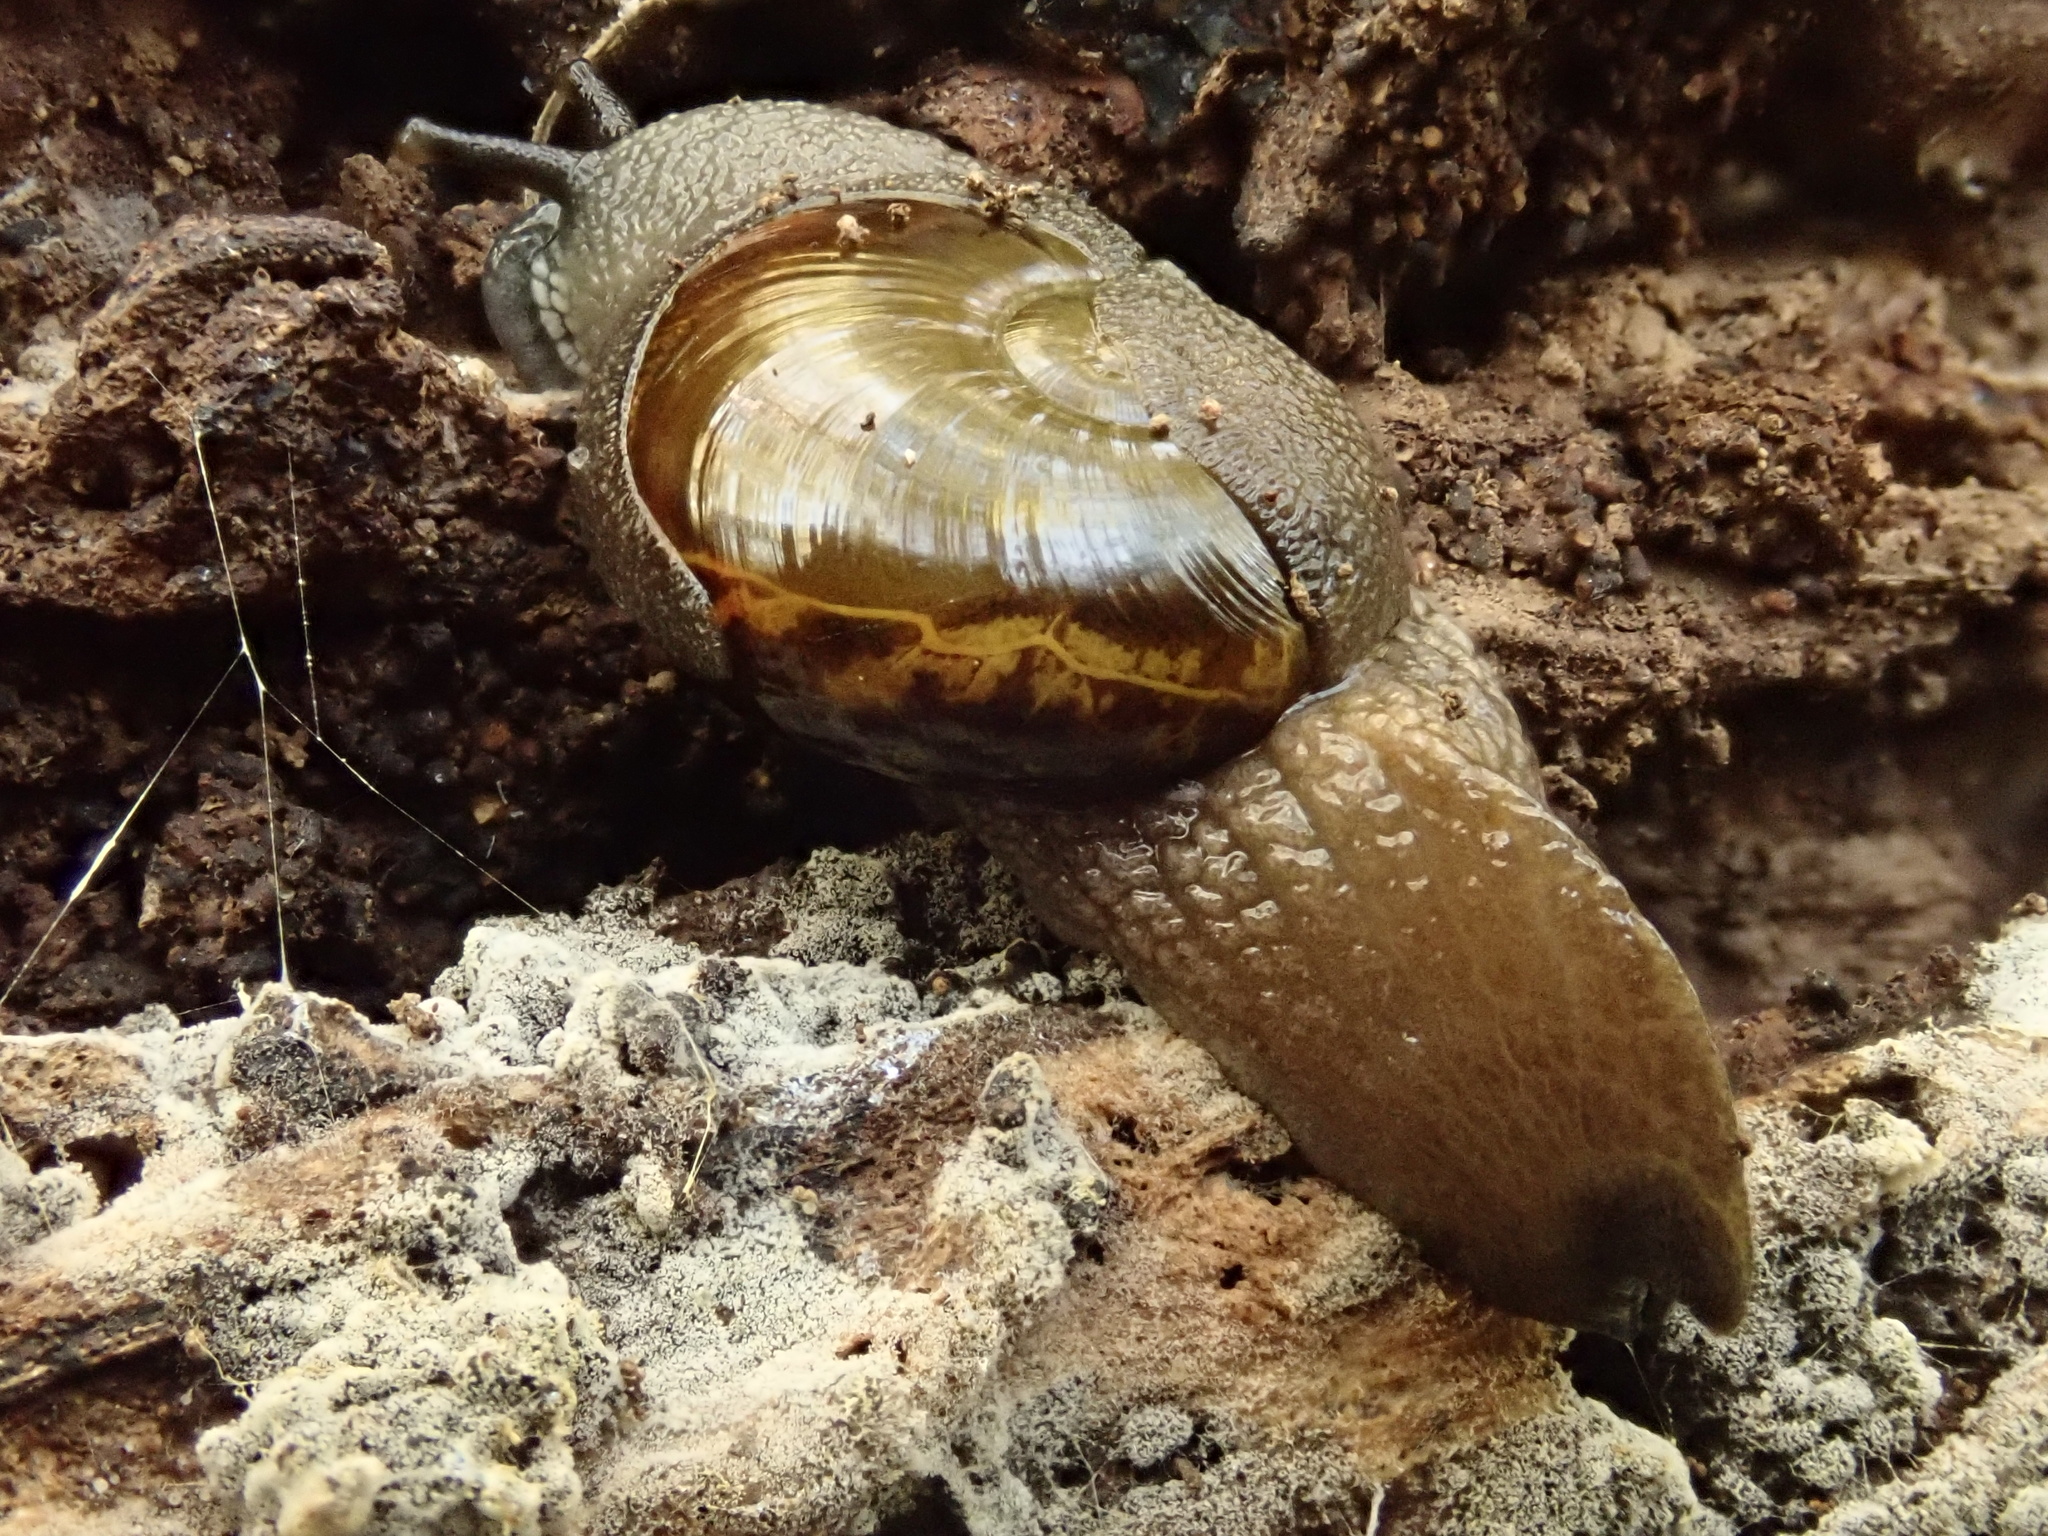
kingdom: Animalia
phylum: Mollusca
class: Gastropoda
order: Stylommatophora
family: Helicarionidae
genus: Helicarion
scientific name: Helicarion cuvieri
